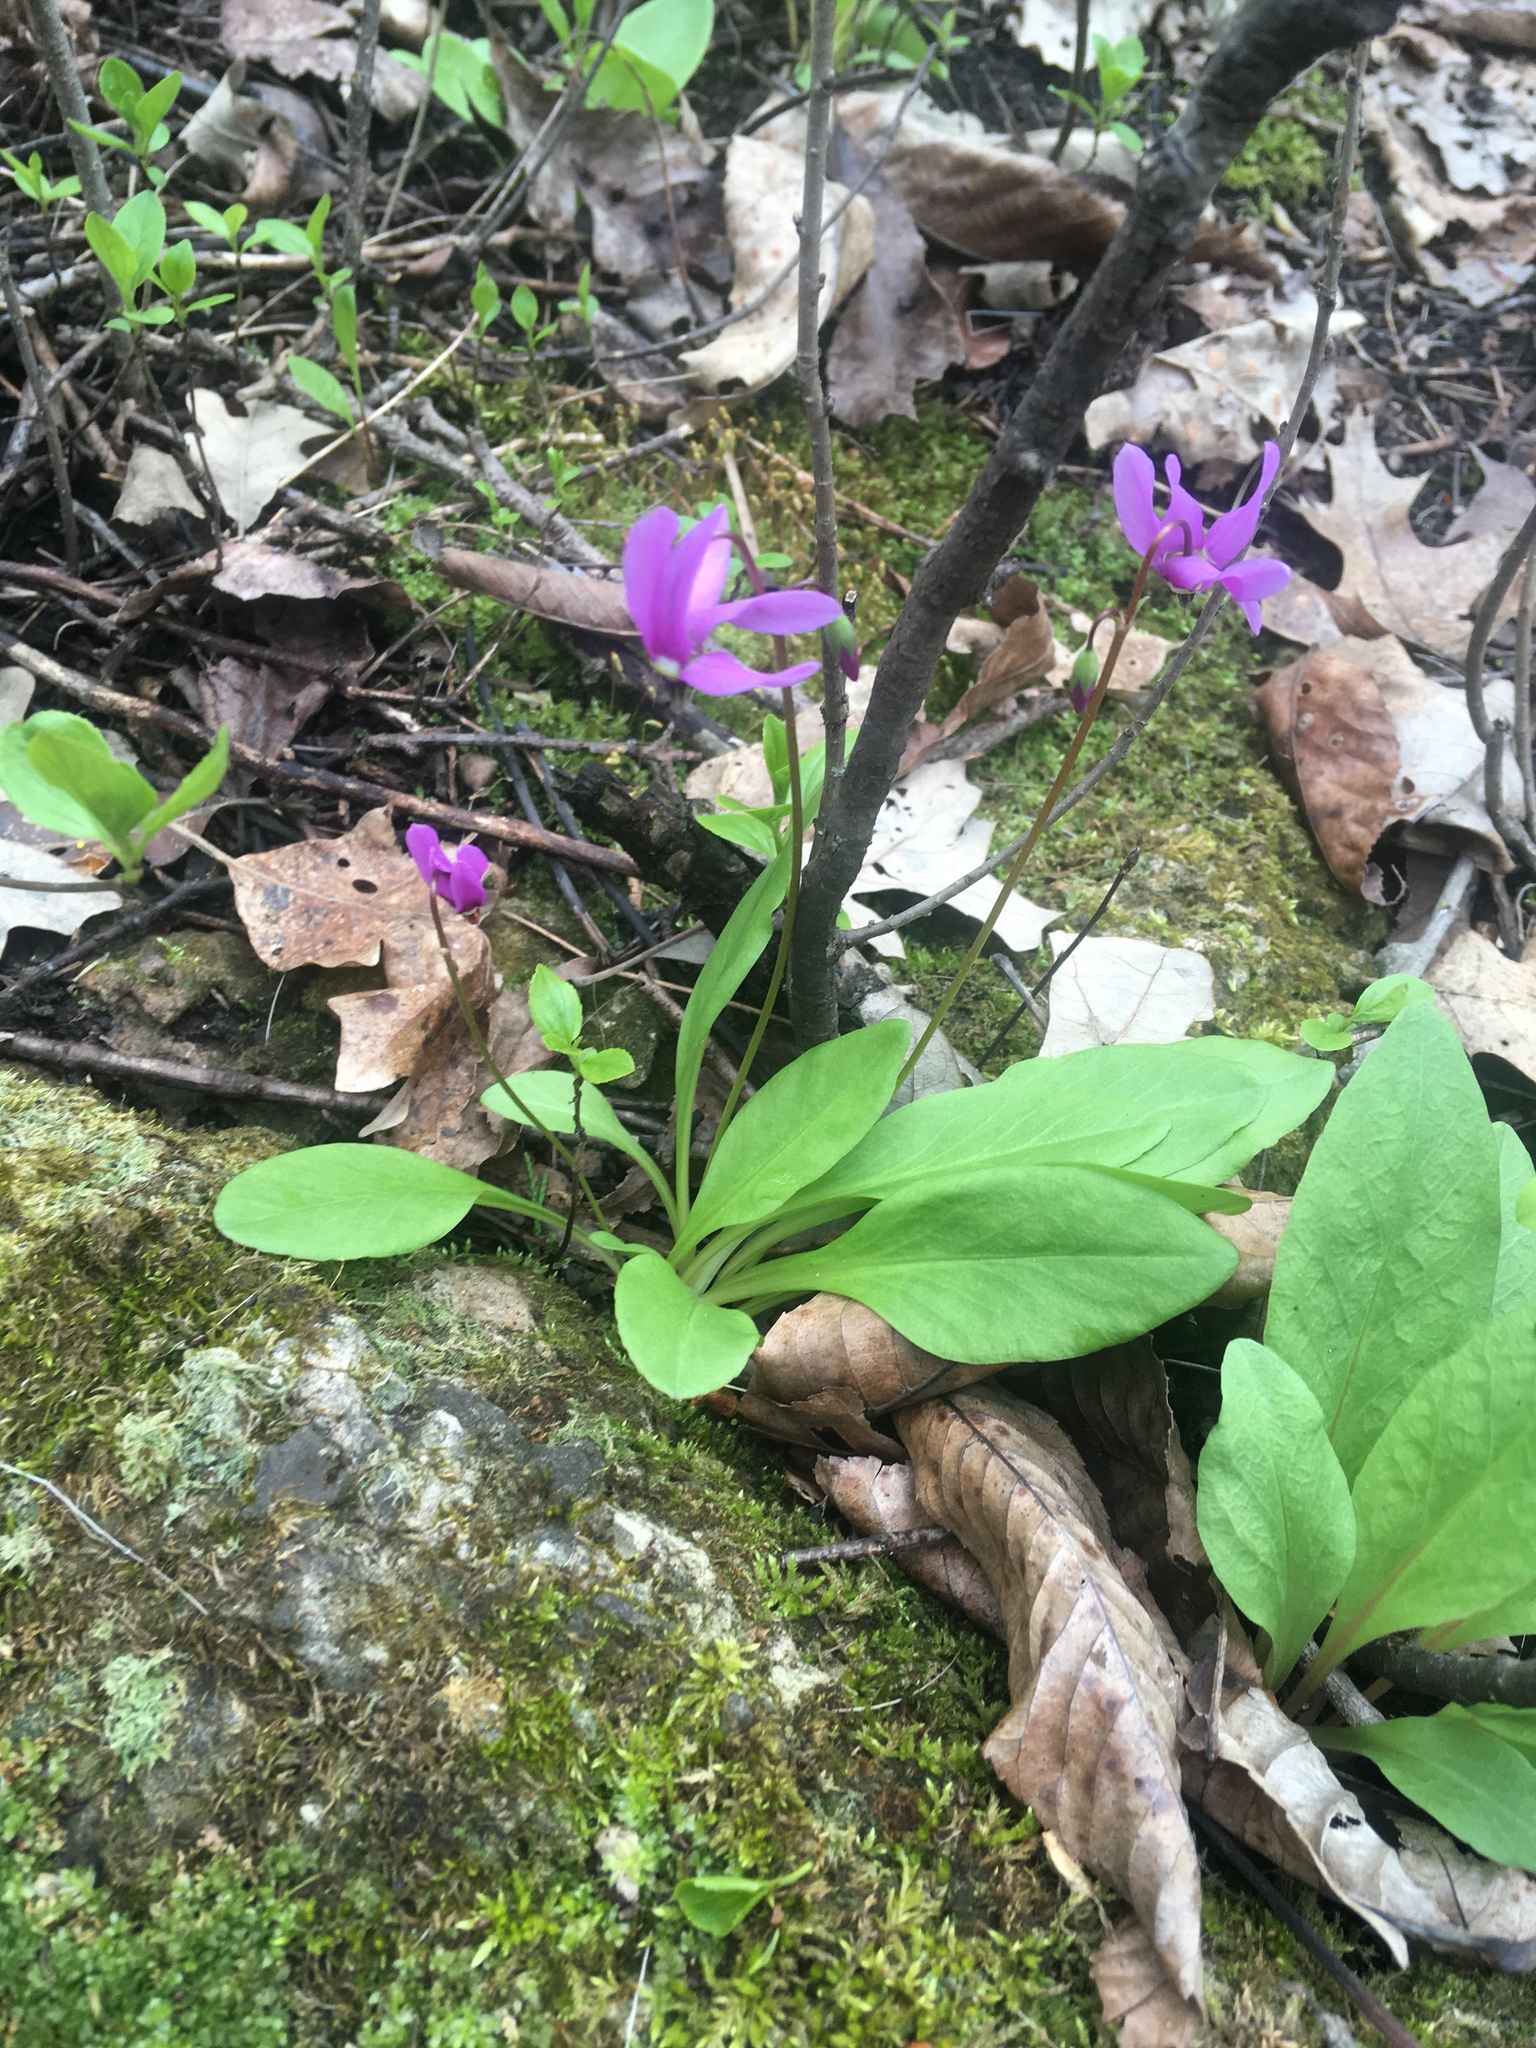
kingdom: Plantae
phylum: Tracheophyta
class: Magnoliopsida
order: Ericales
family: Primulaceae
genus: Dodecatheon
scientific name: Dodecatheon amethystinum
